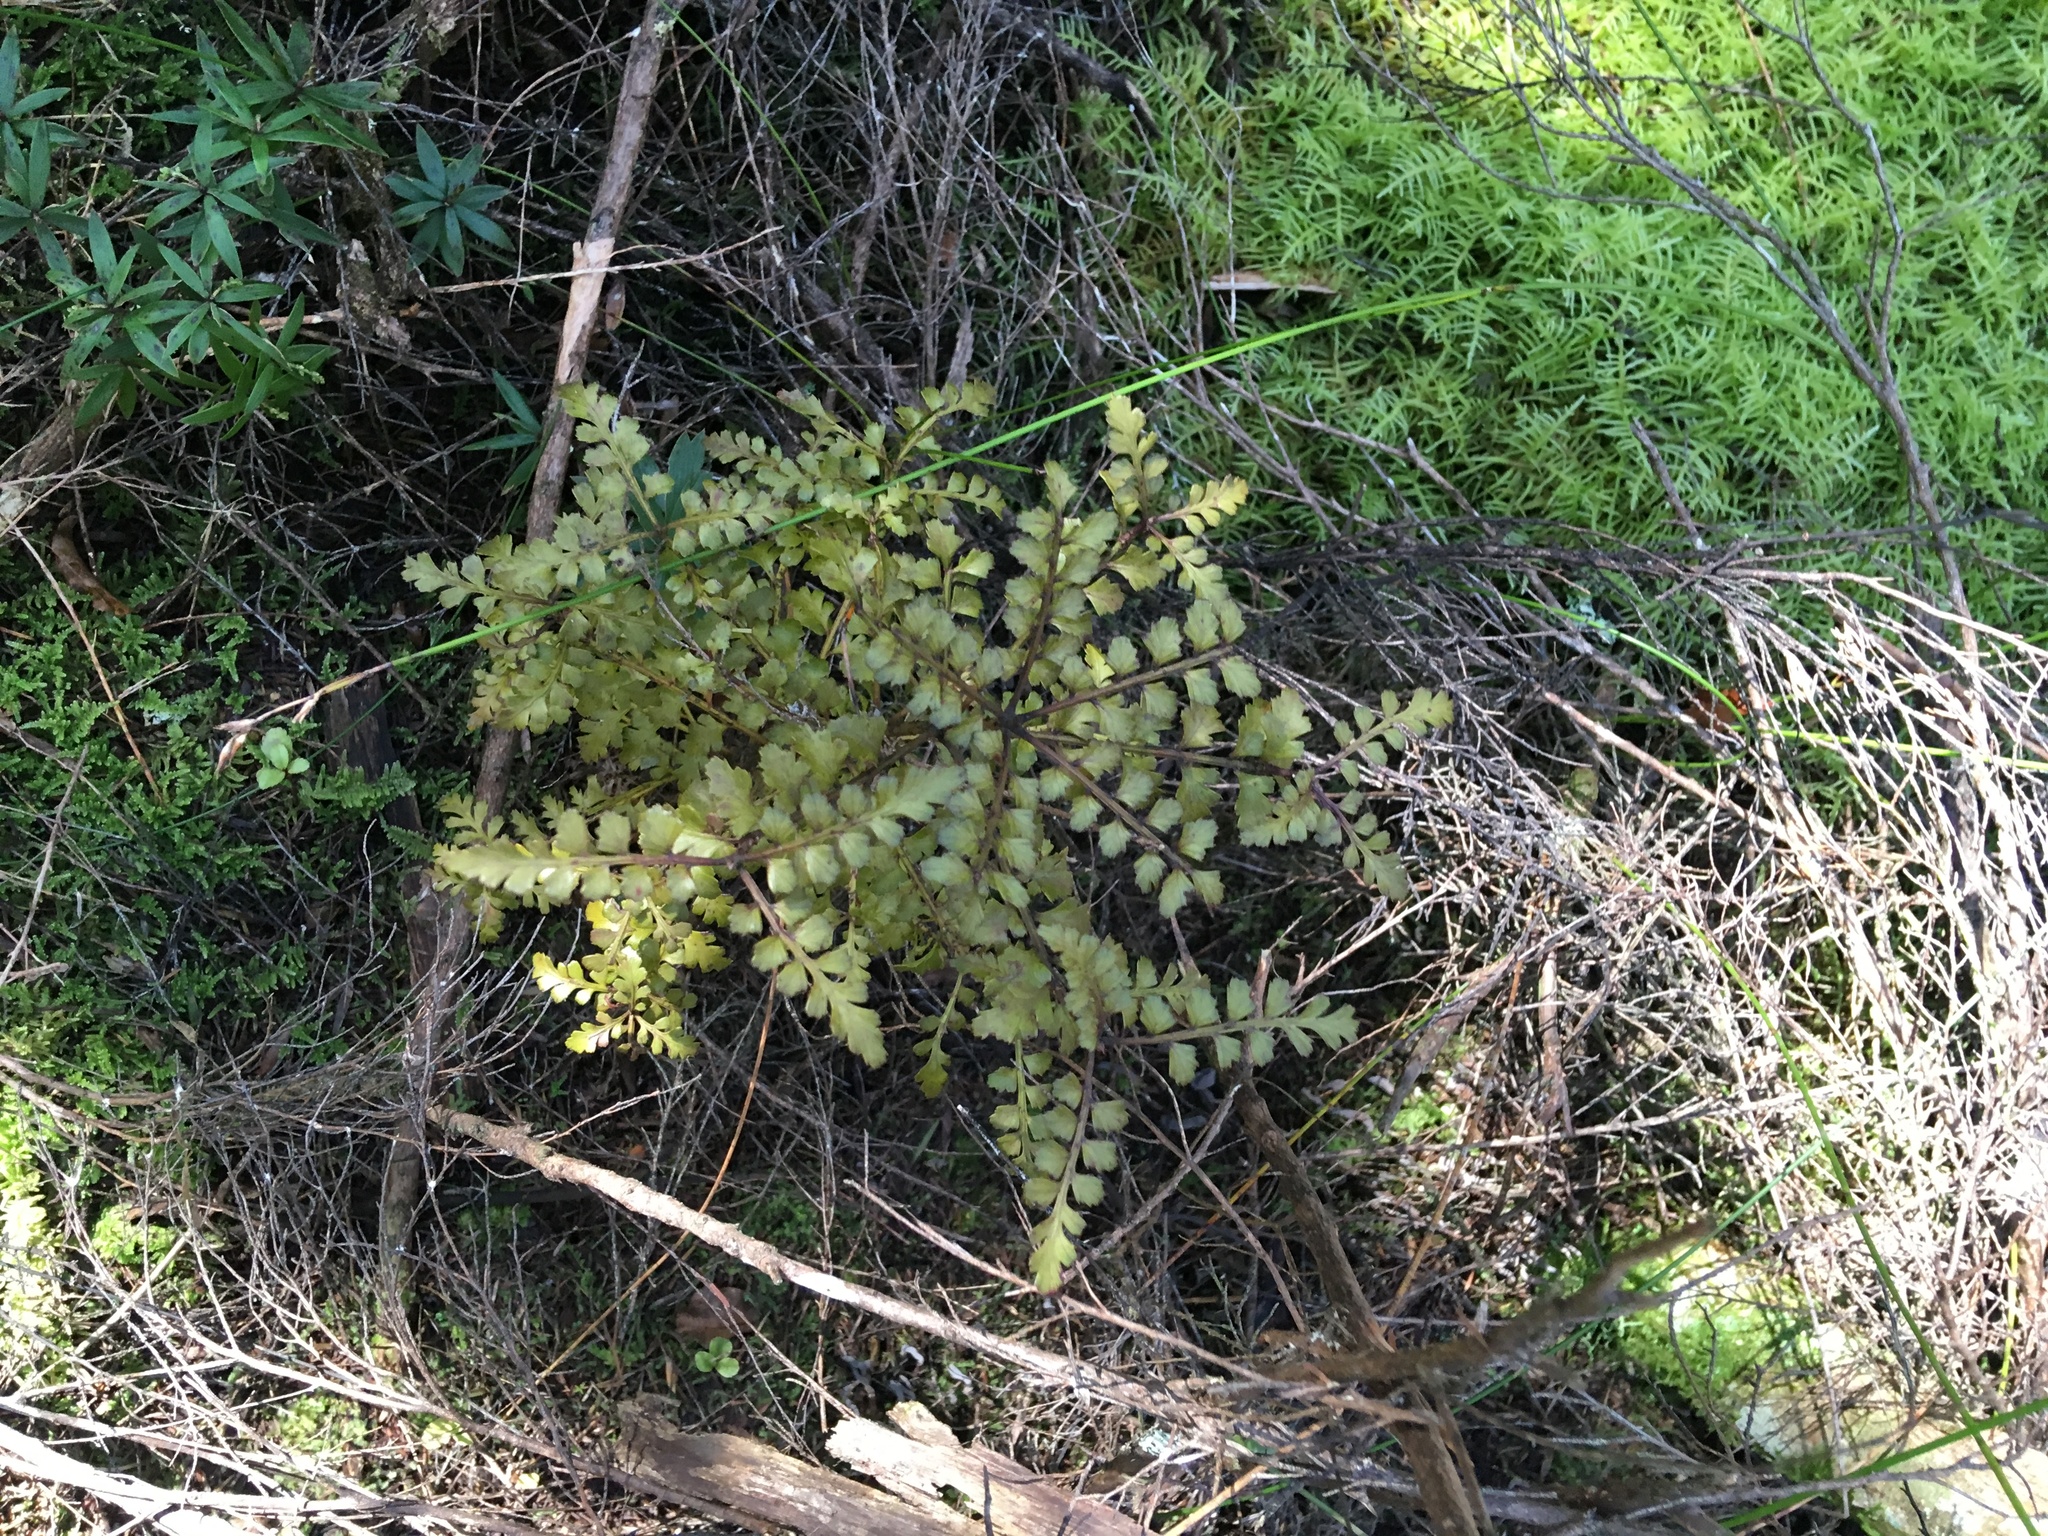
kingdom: Plantae
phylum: Tracheophyta
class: Pinopsida
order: Pinales
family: Phyllocladaceae
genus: Phyllocladus
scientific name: Phyllocladus trichomanoides
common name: Celery pine
